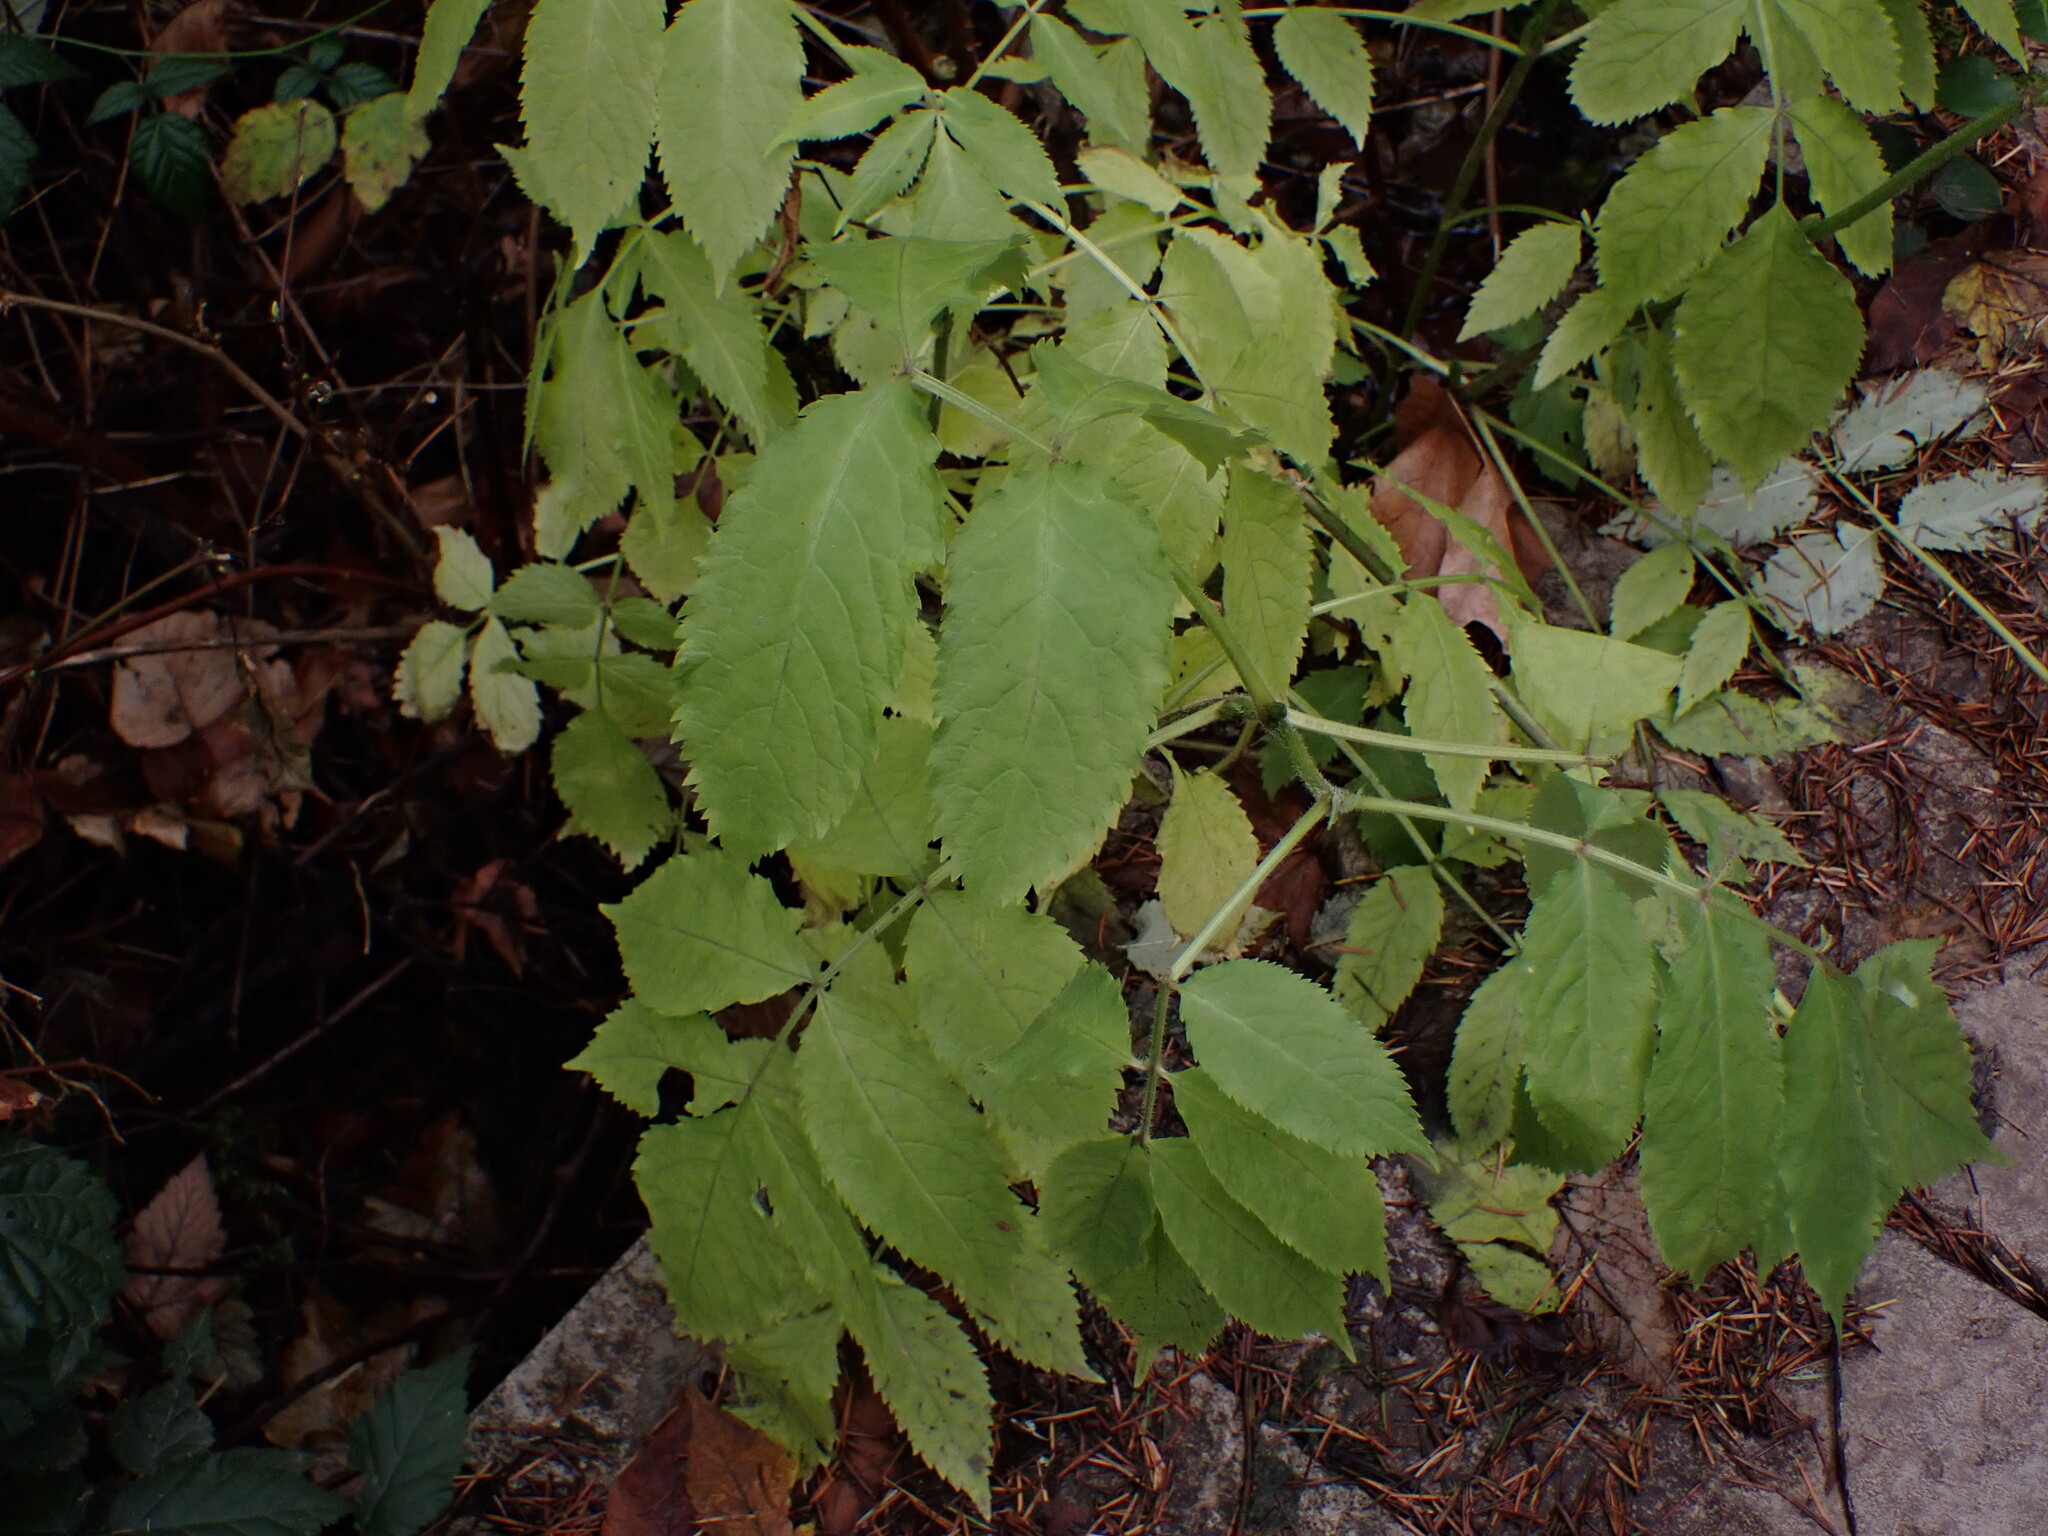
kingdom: Plantae
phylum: Tracheophyta
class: Magnoliopsida
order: Dipsacales
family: Viburnaceae
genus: Sambucus
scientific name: Sambucus racemosa
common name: Red-berried elder
